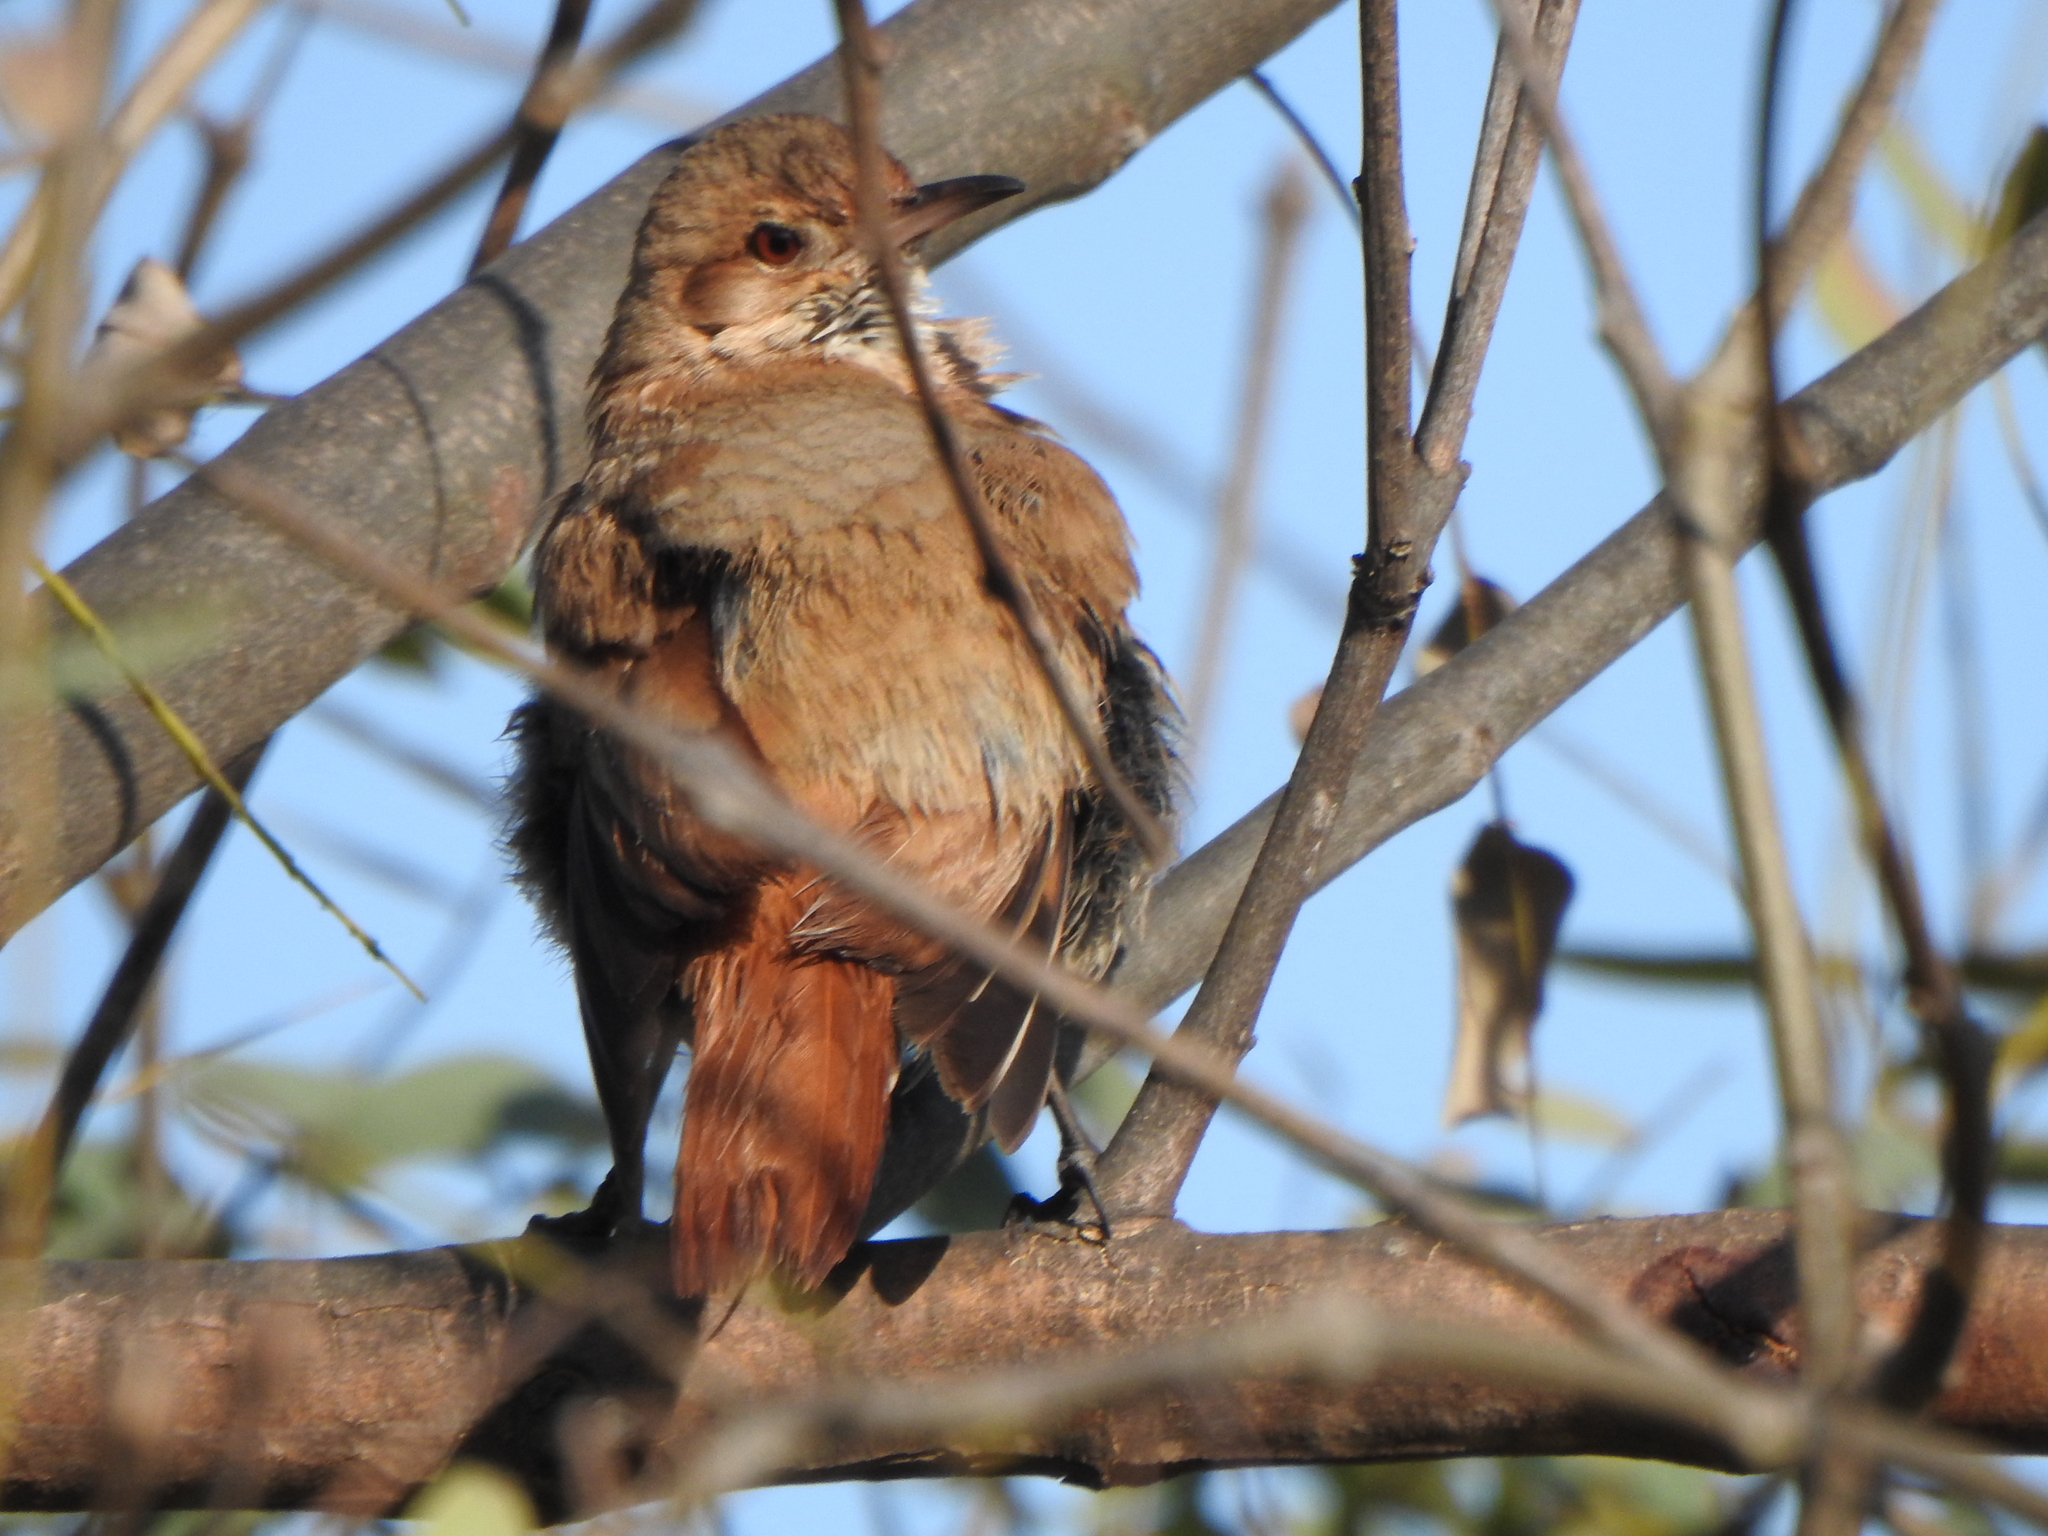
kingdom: Animalia
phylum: Chordata
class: Aves
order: Passeriformes
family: Furnariidae
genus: Furnarius
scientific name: Furnarius rufus
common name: Rufous hornero
